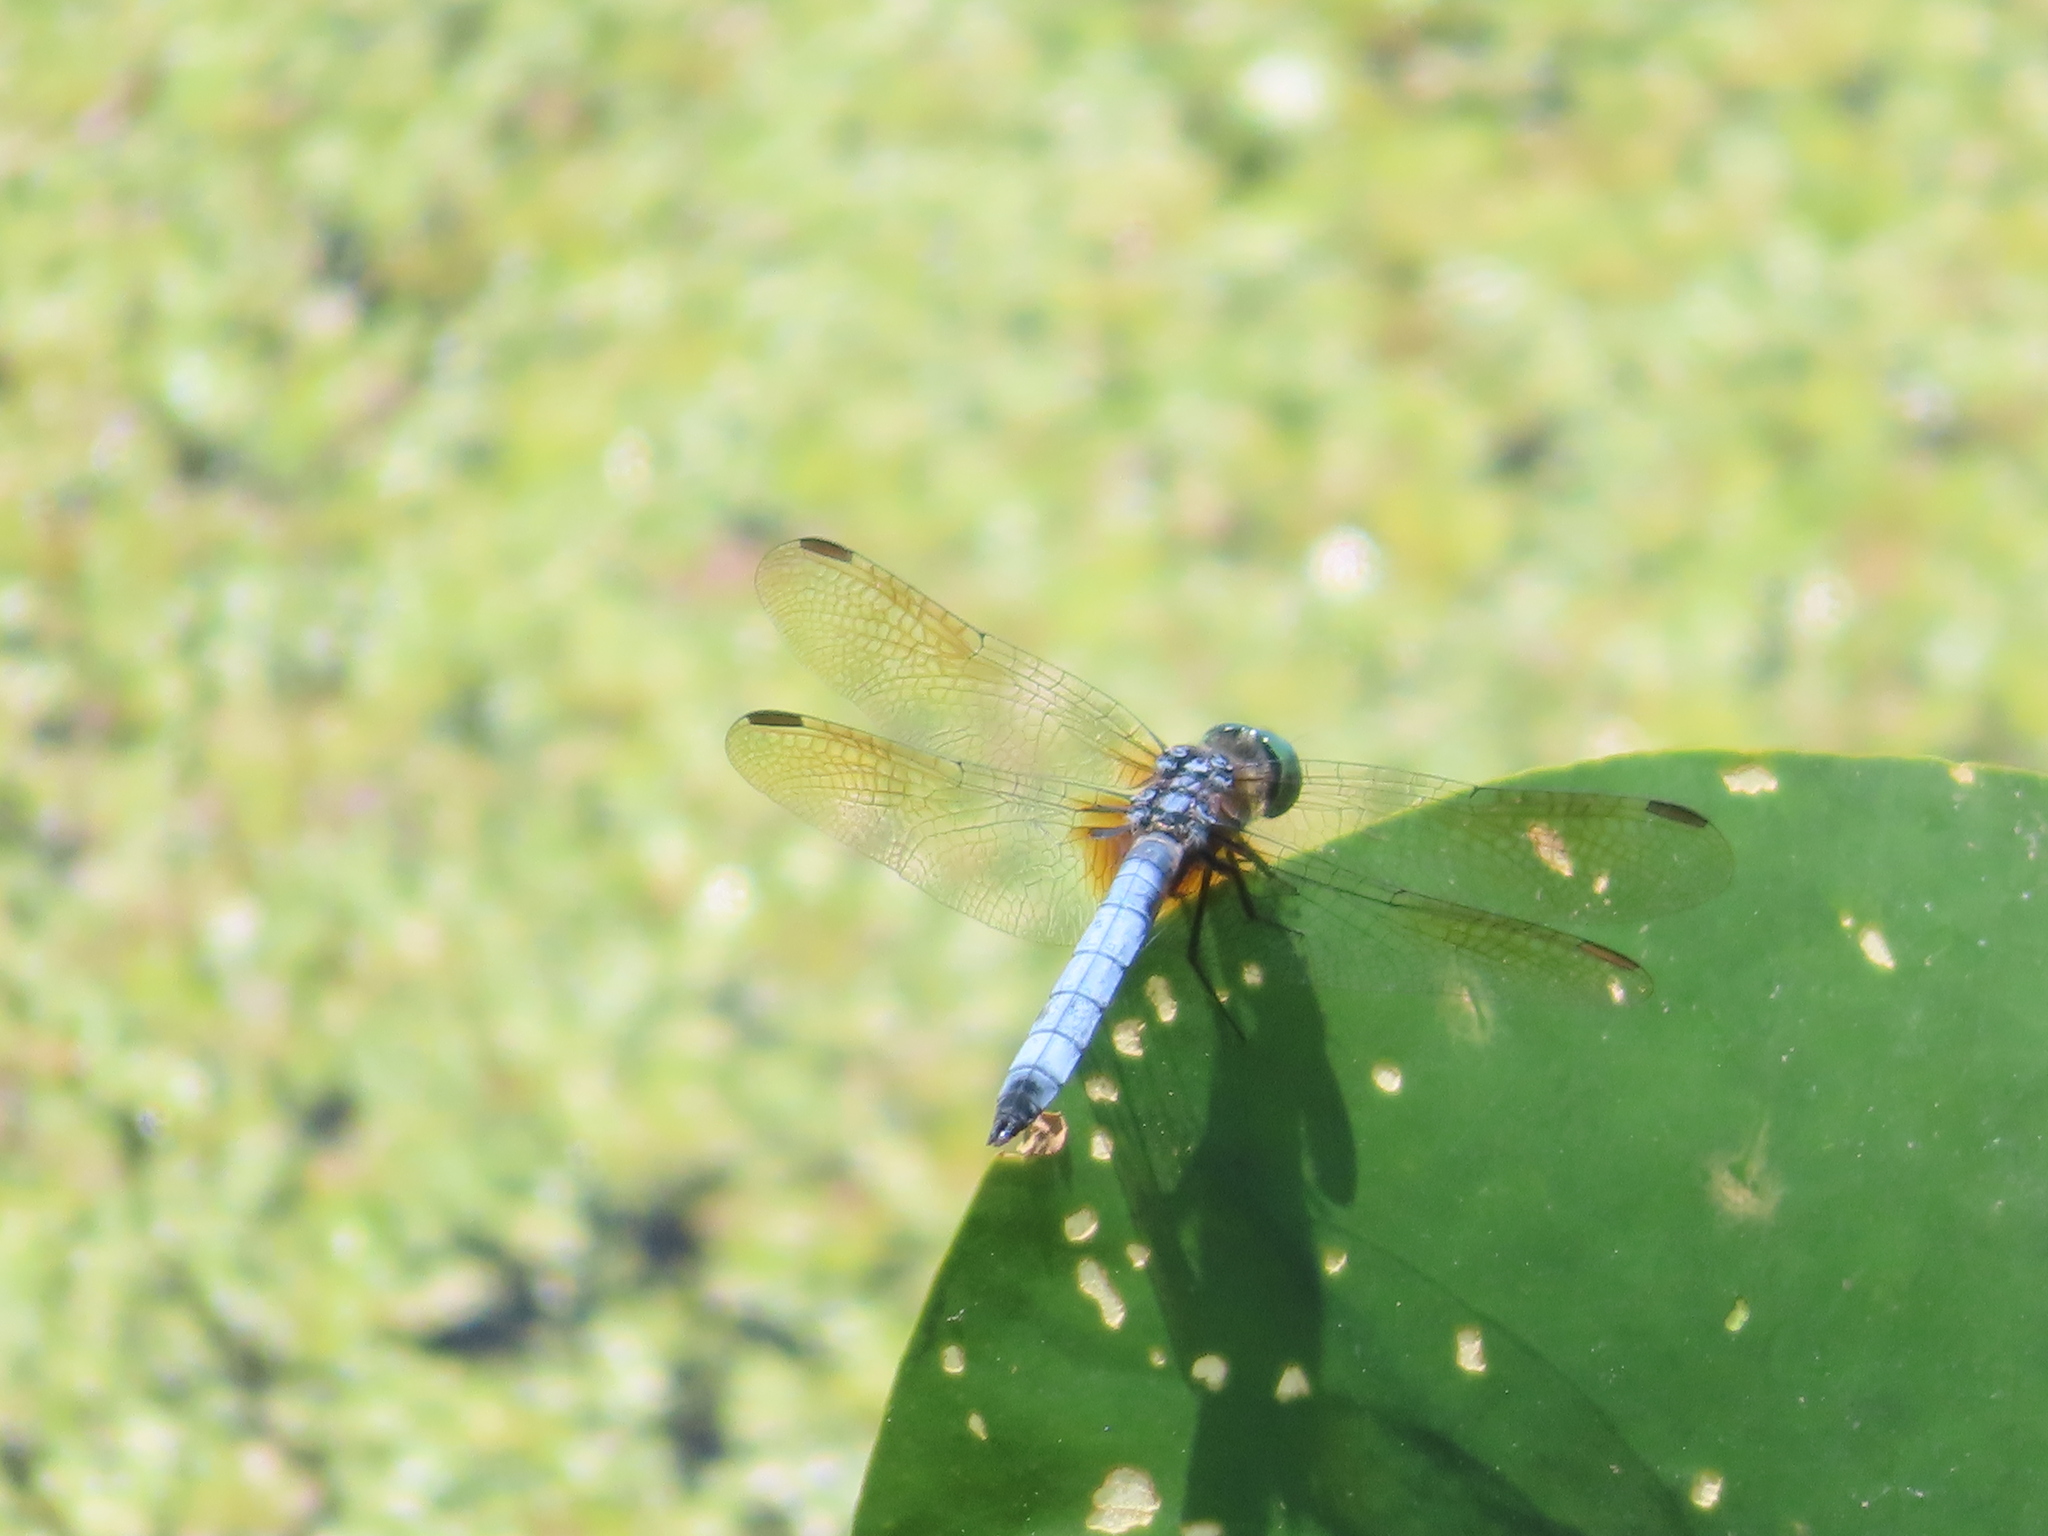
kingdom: Animalia
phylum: Arthropoda
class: Insecta
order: Odonata
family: Libellulidae
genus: Pachydiplax
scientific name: Pachydiplax longipennis
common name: Blue dasher
